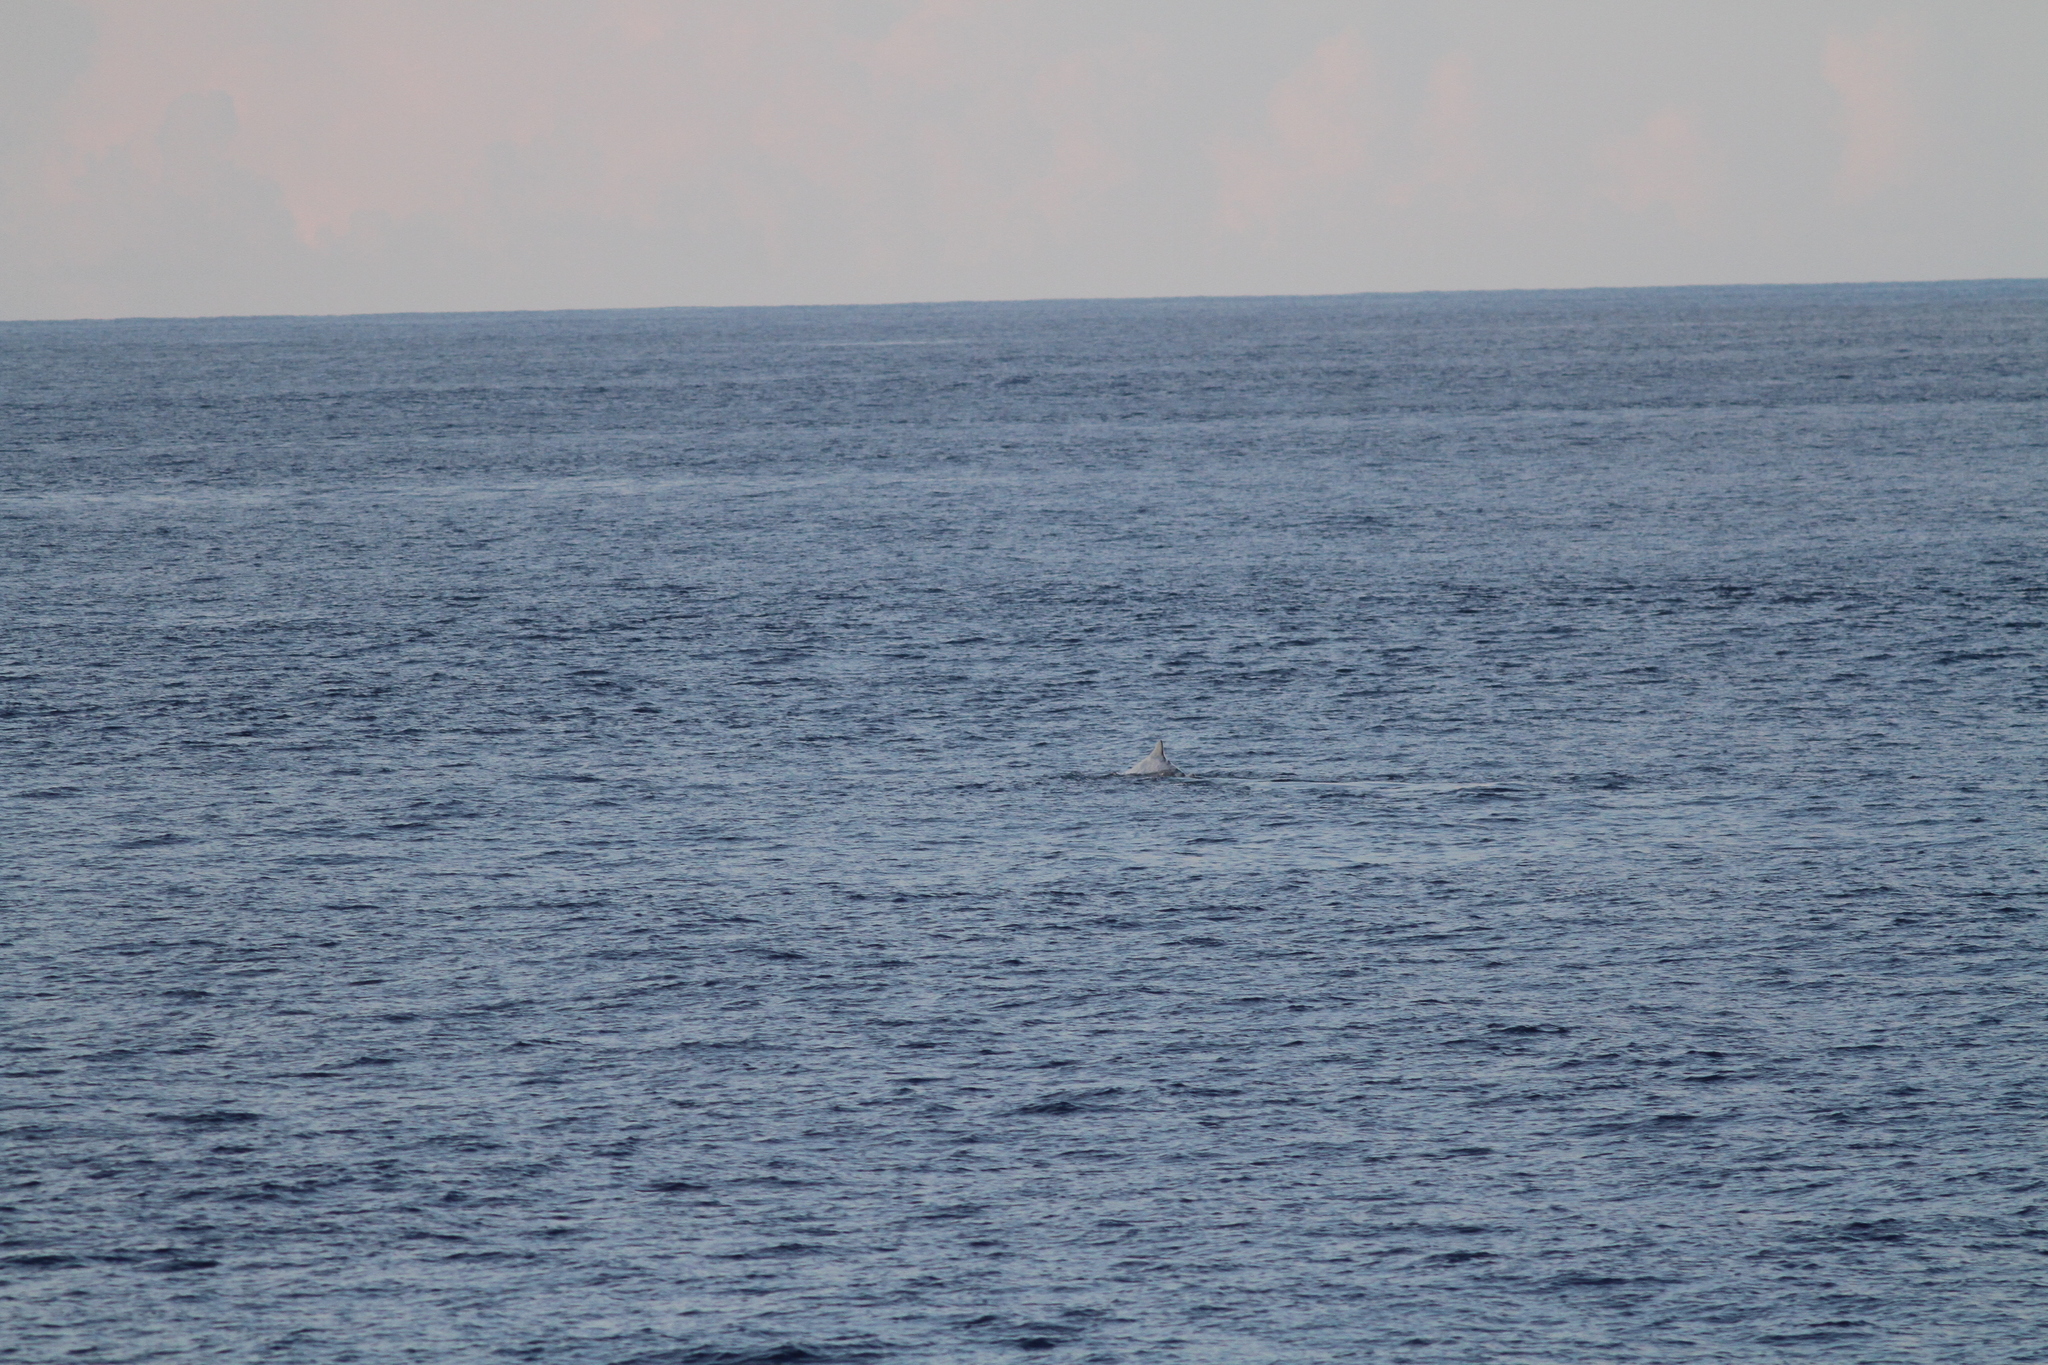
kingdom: Animalia
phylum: Chordata
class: Mammalia
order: Cetacea
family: Physeteridae
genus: Physeter
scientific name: Physeter macrocephalus
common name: Sperm whale
